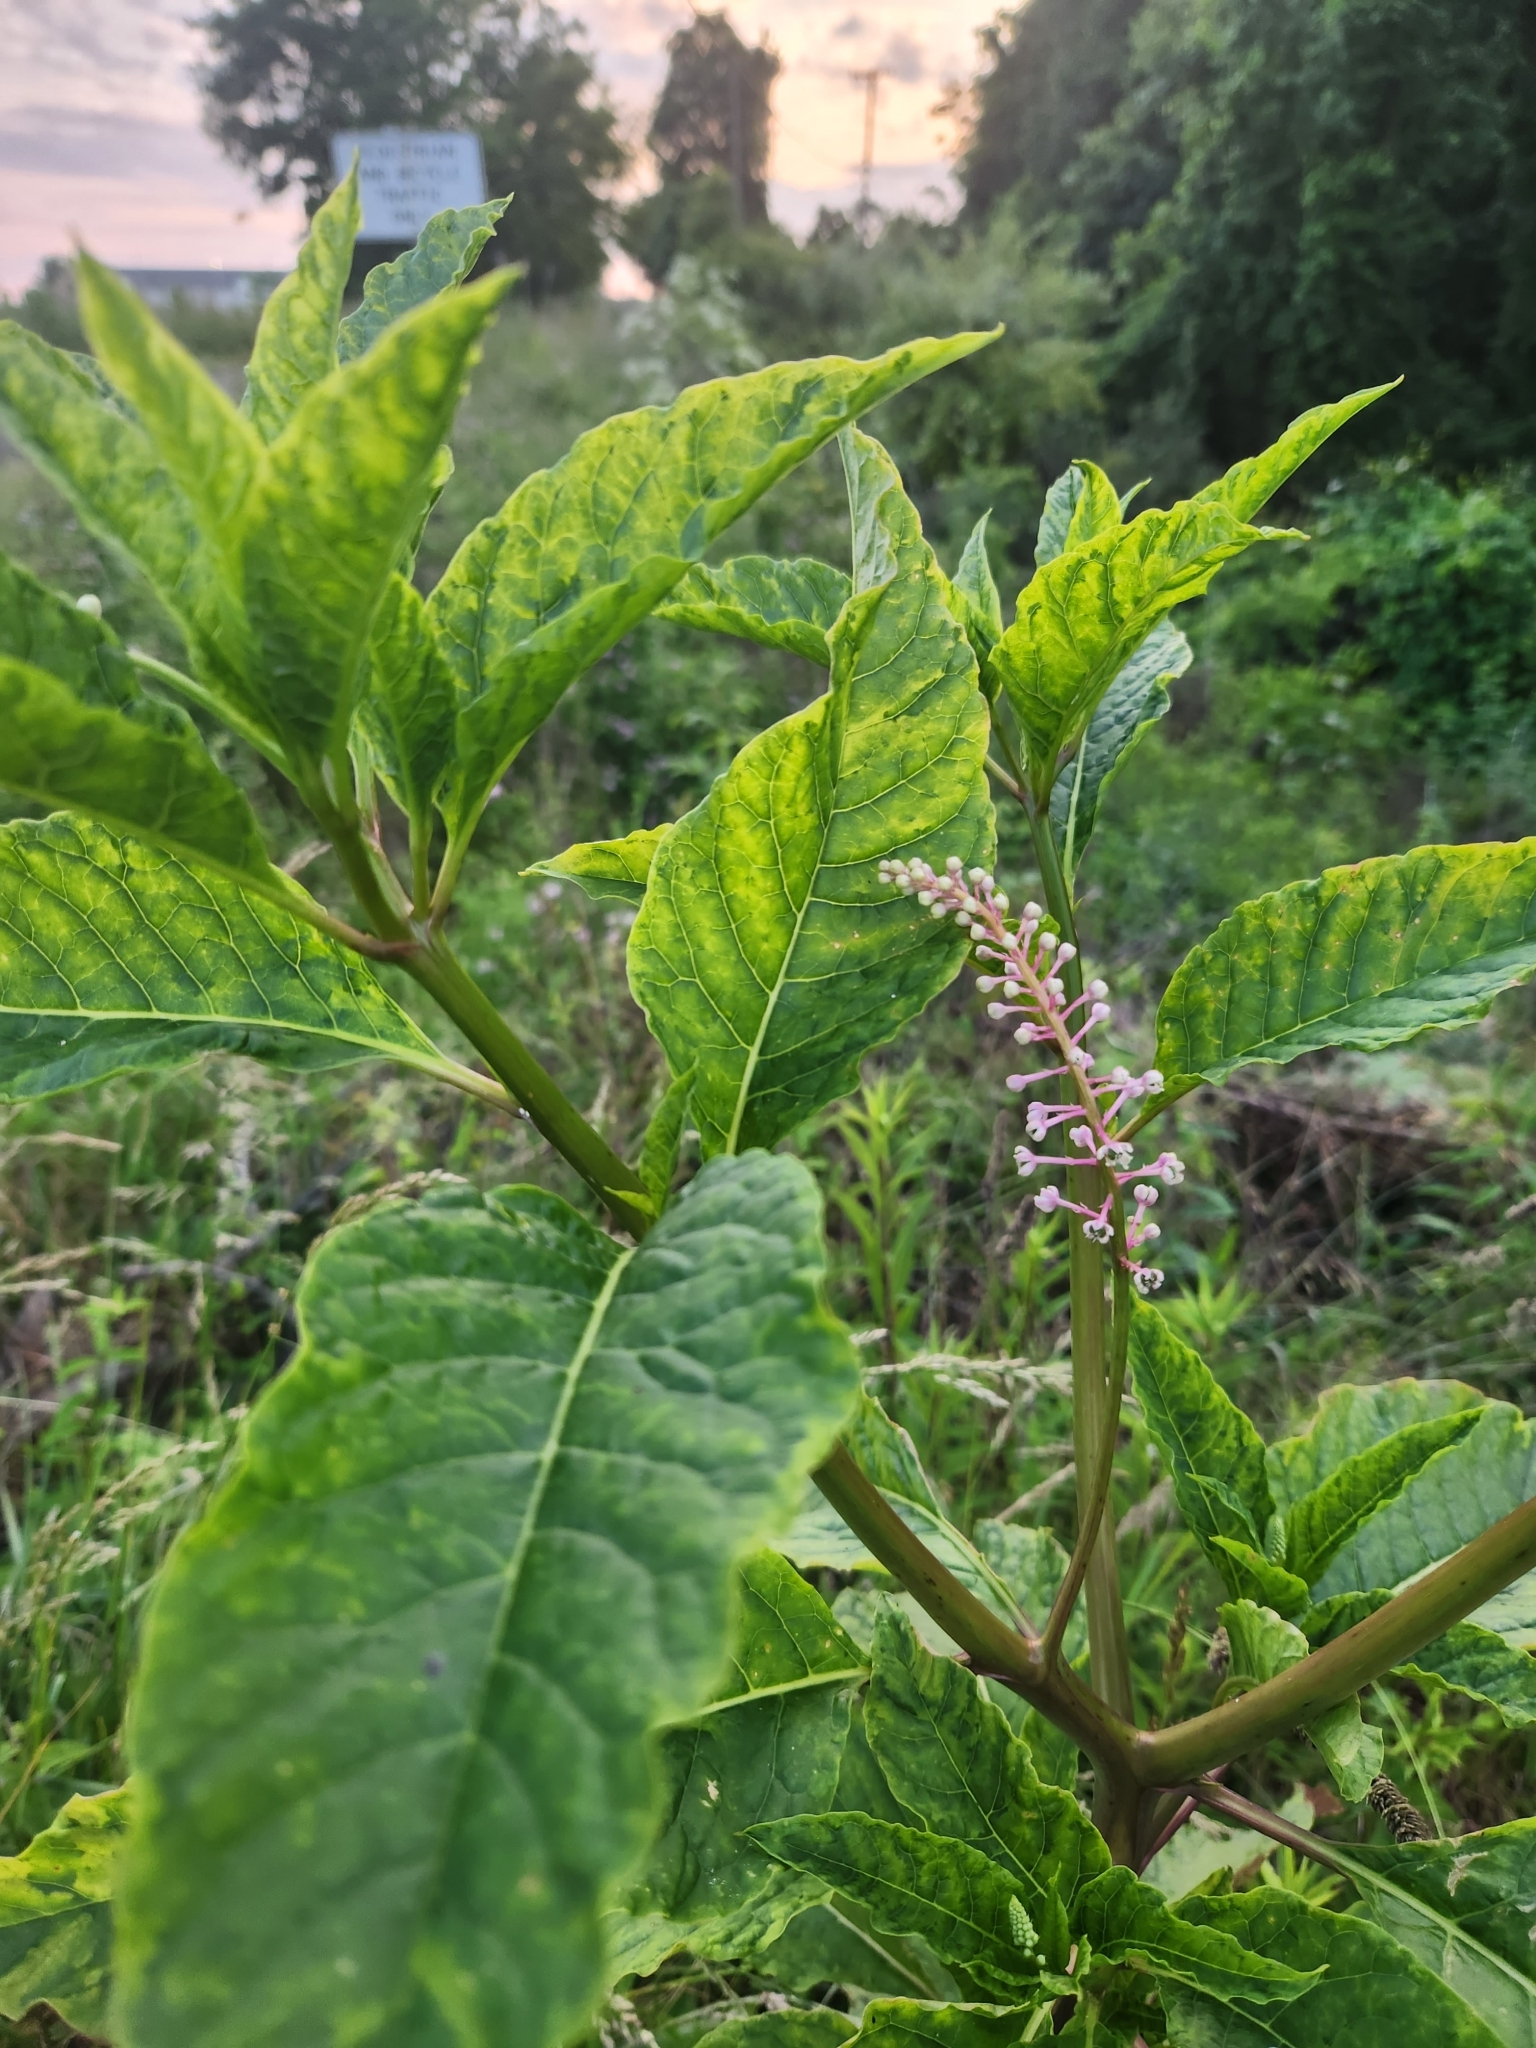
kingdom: Plantae
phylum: Tracheophyta
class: Magnoliopsida
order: Caryophyllales
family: Phytolaccaceae
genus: Phytolacca
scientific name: Phytolacca americana
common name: American pokeweed
